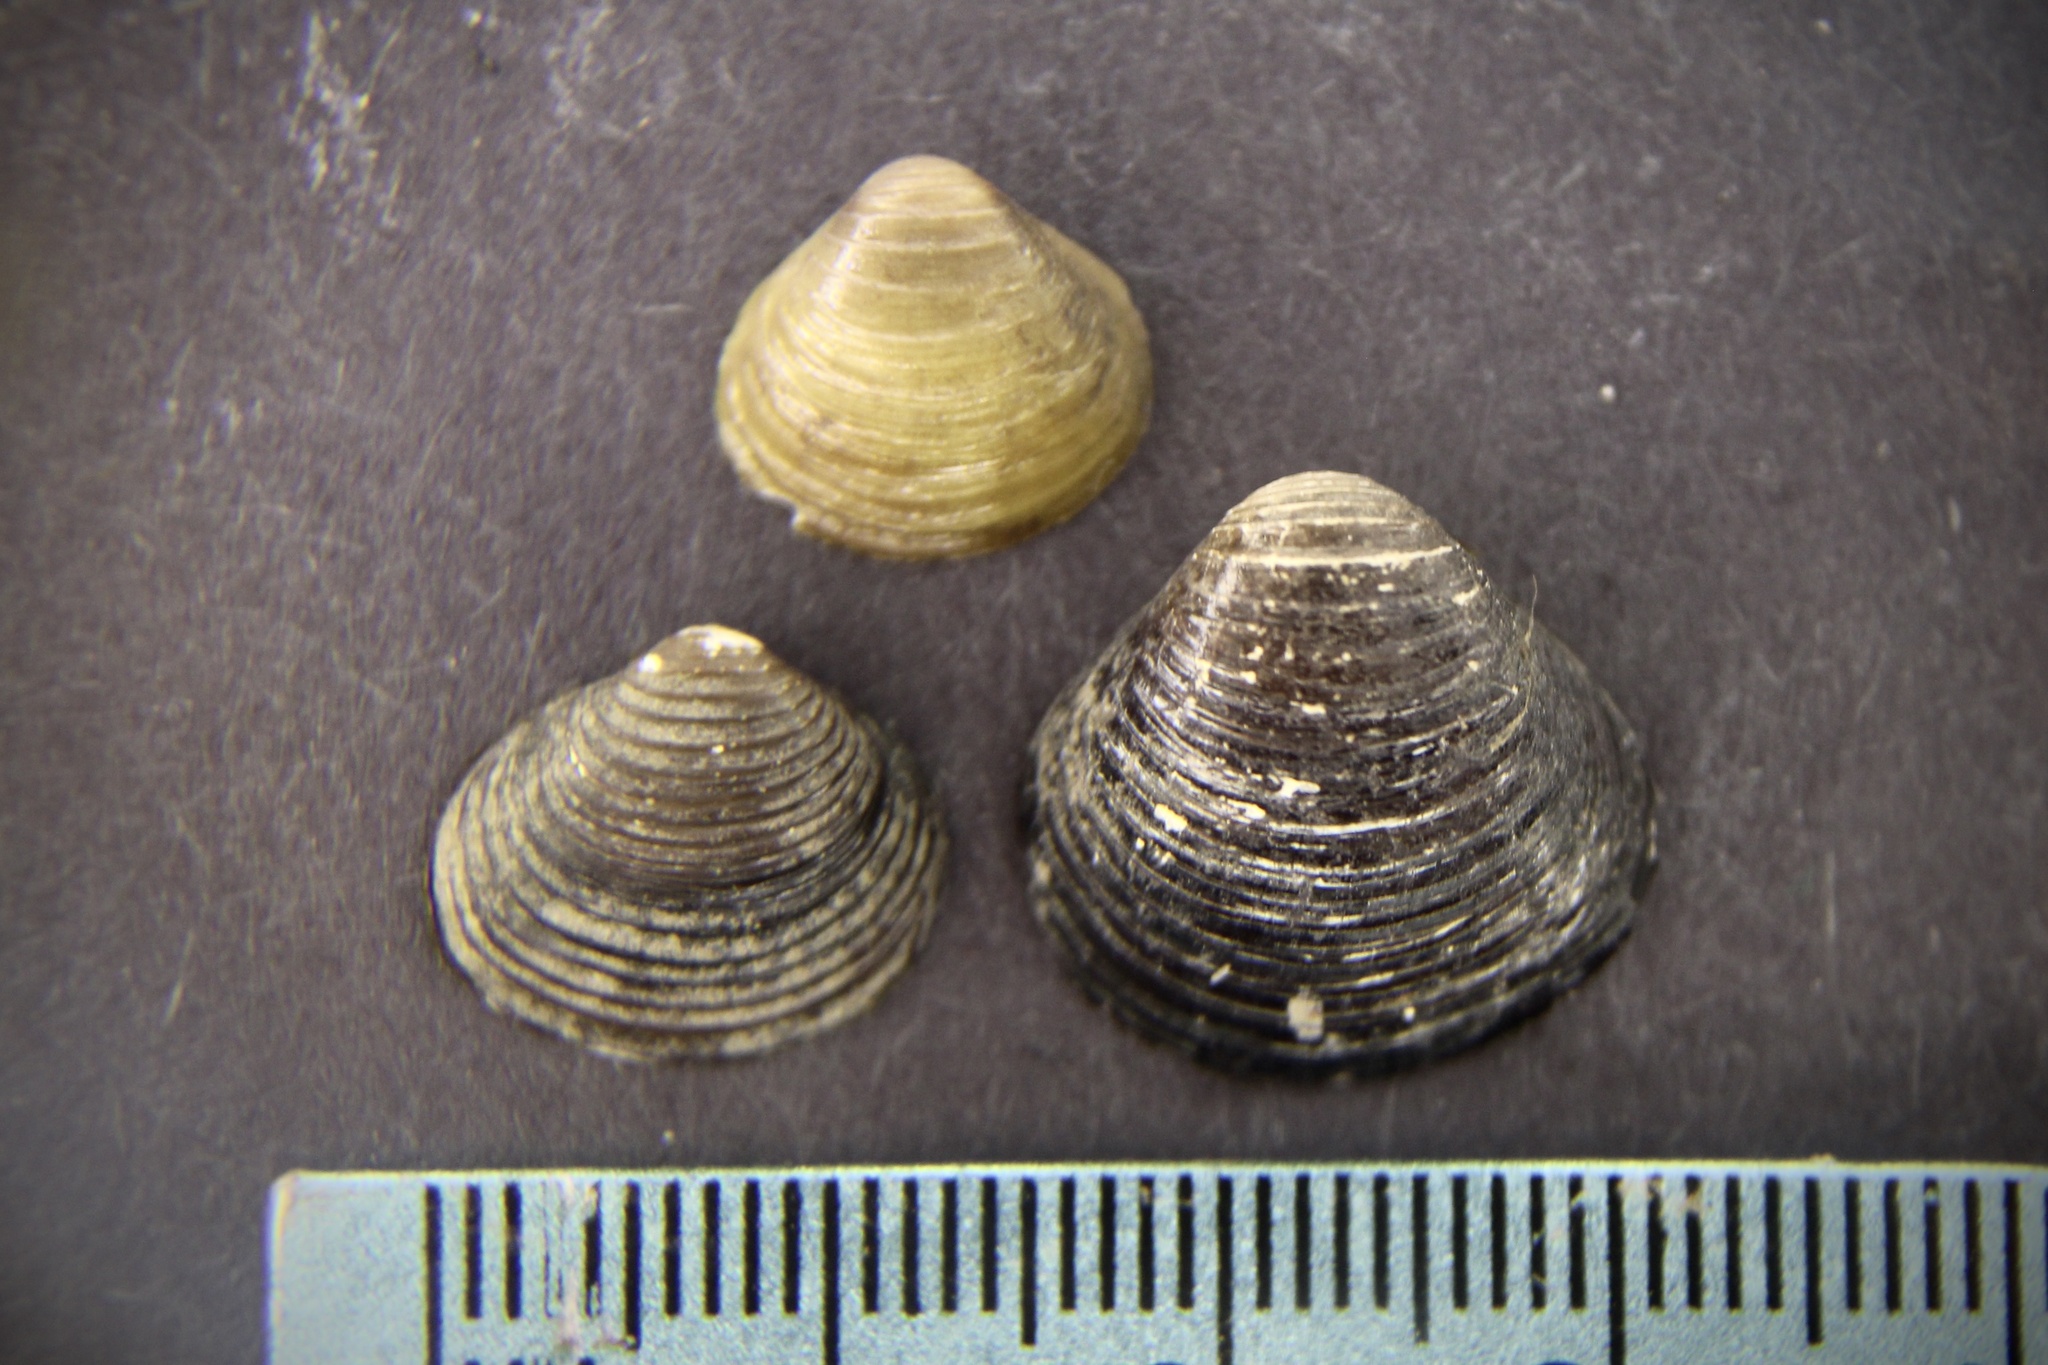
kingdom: Animalia
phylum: Mollusca
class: Bivalvia
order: Venerida
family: Cyrenidae
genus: Corbicula
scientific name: Corbicula fluminea
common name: Asian clam
